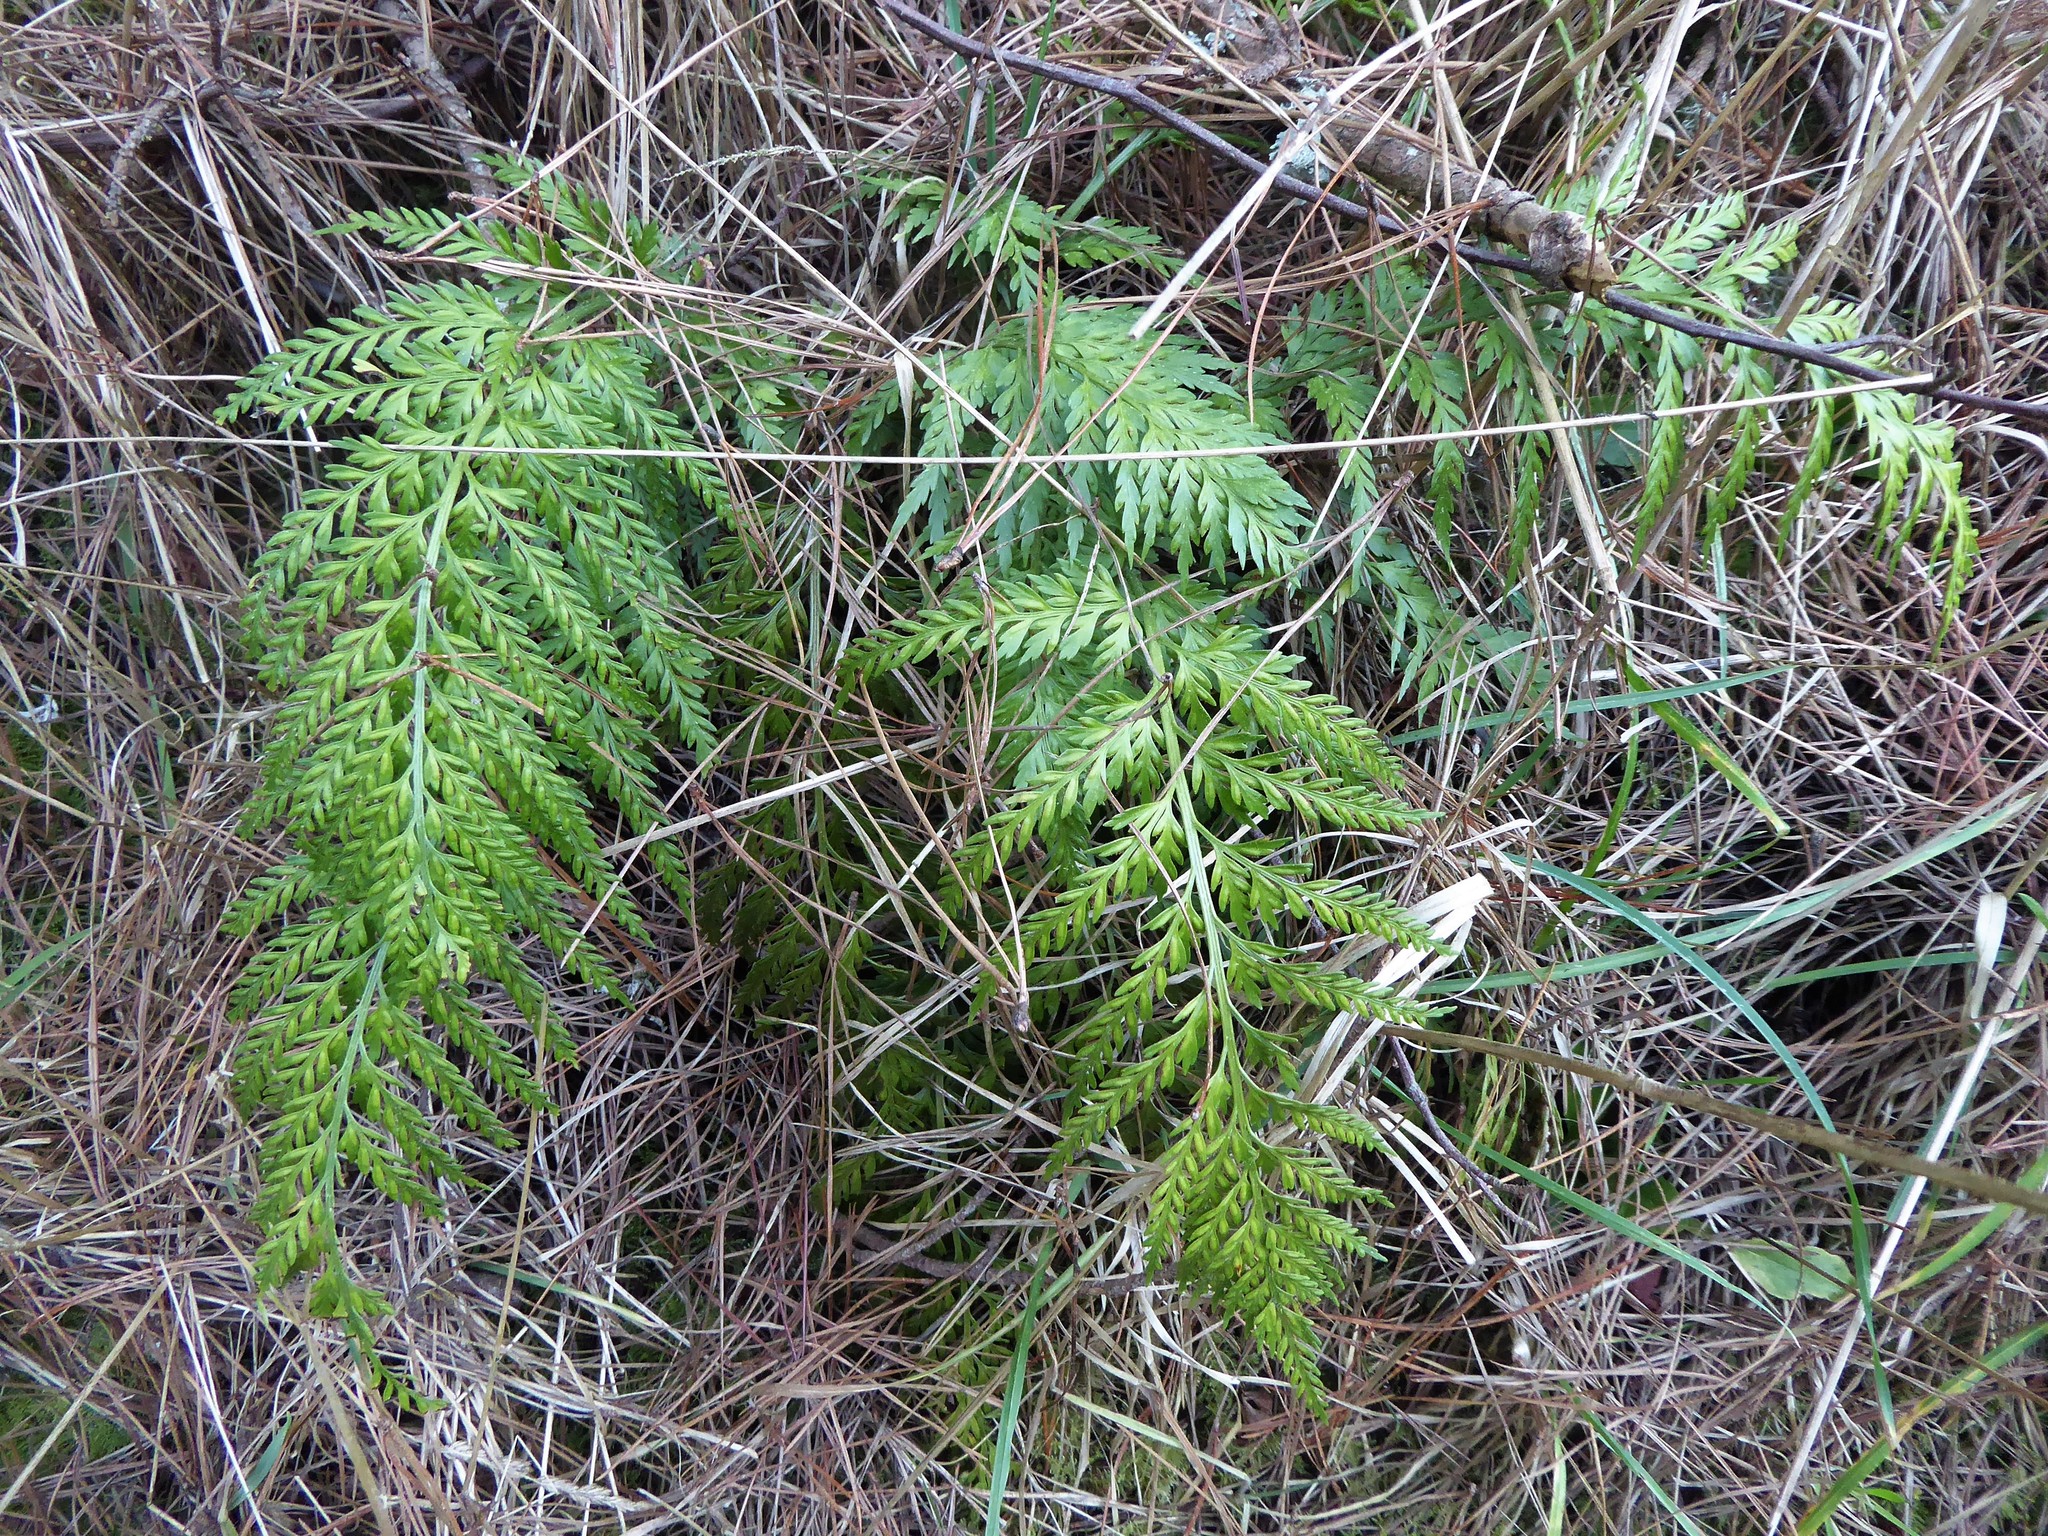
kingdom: Plantae
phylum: Tracheophyta
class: Polypodiopsida
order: Polypodiales
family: Aspleniaceae
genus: Asplenium
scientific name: Asplenium appendiculatum
